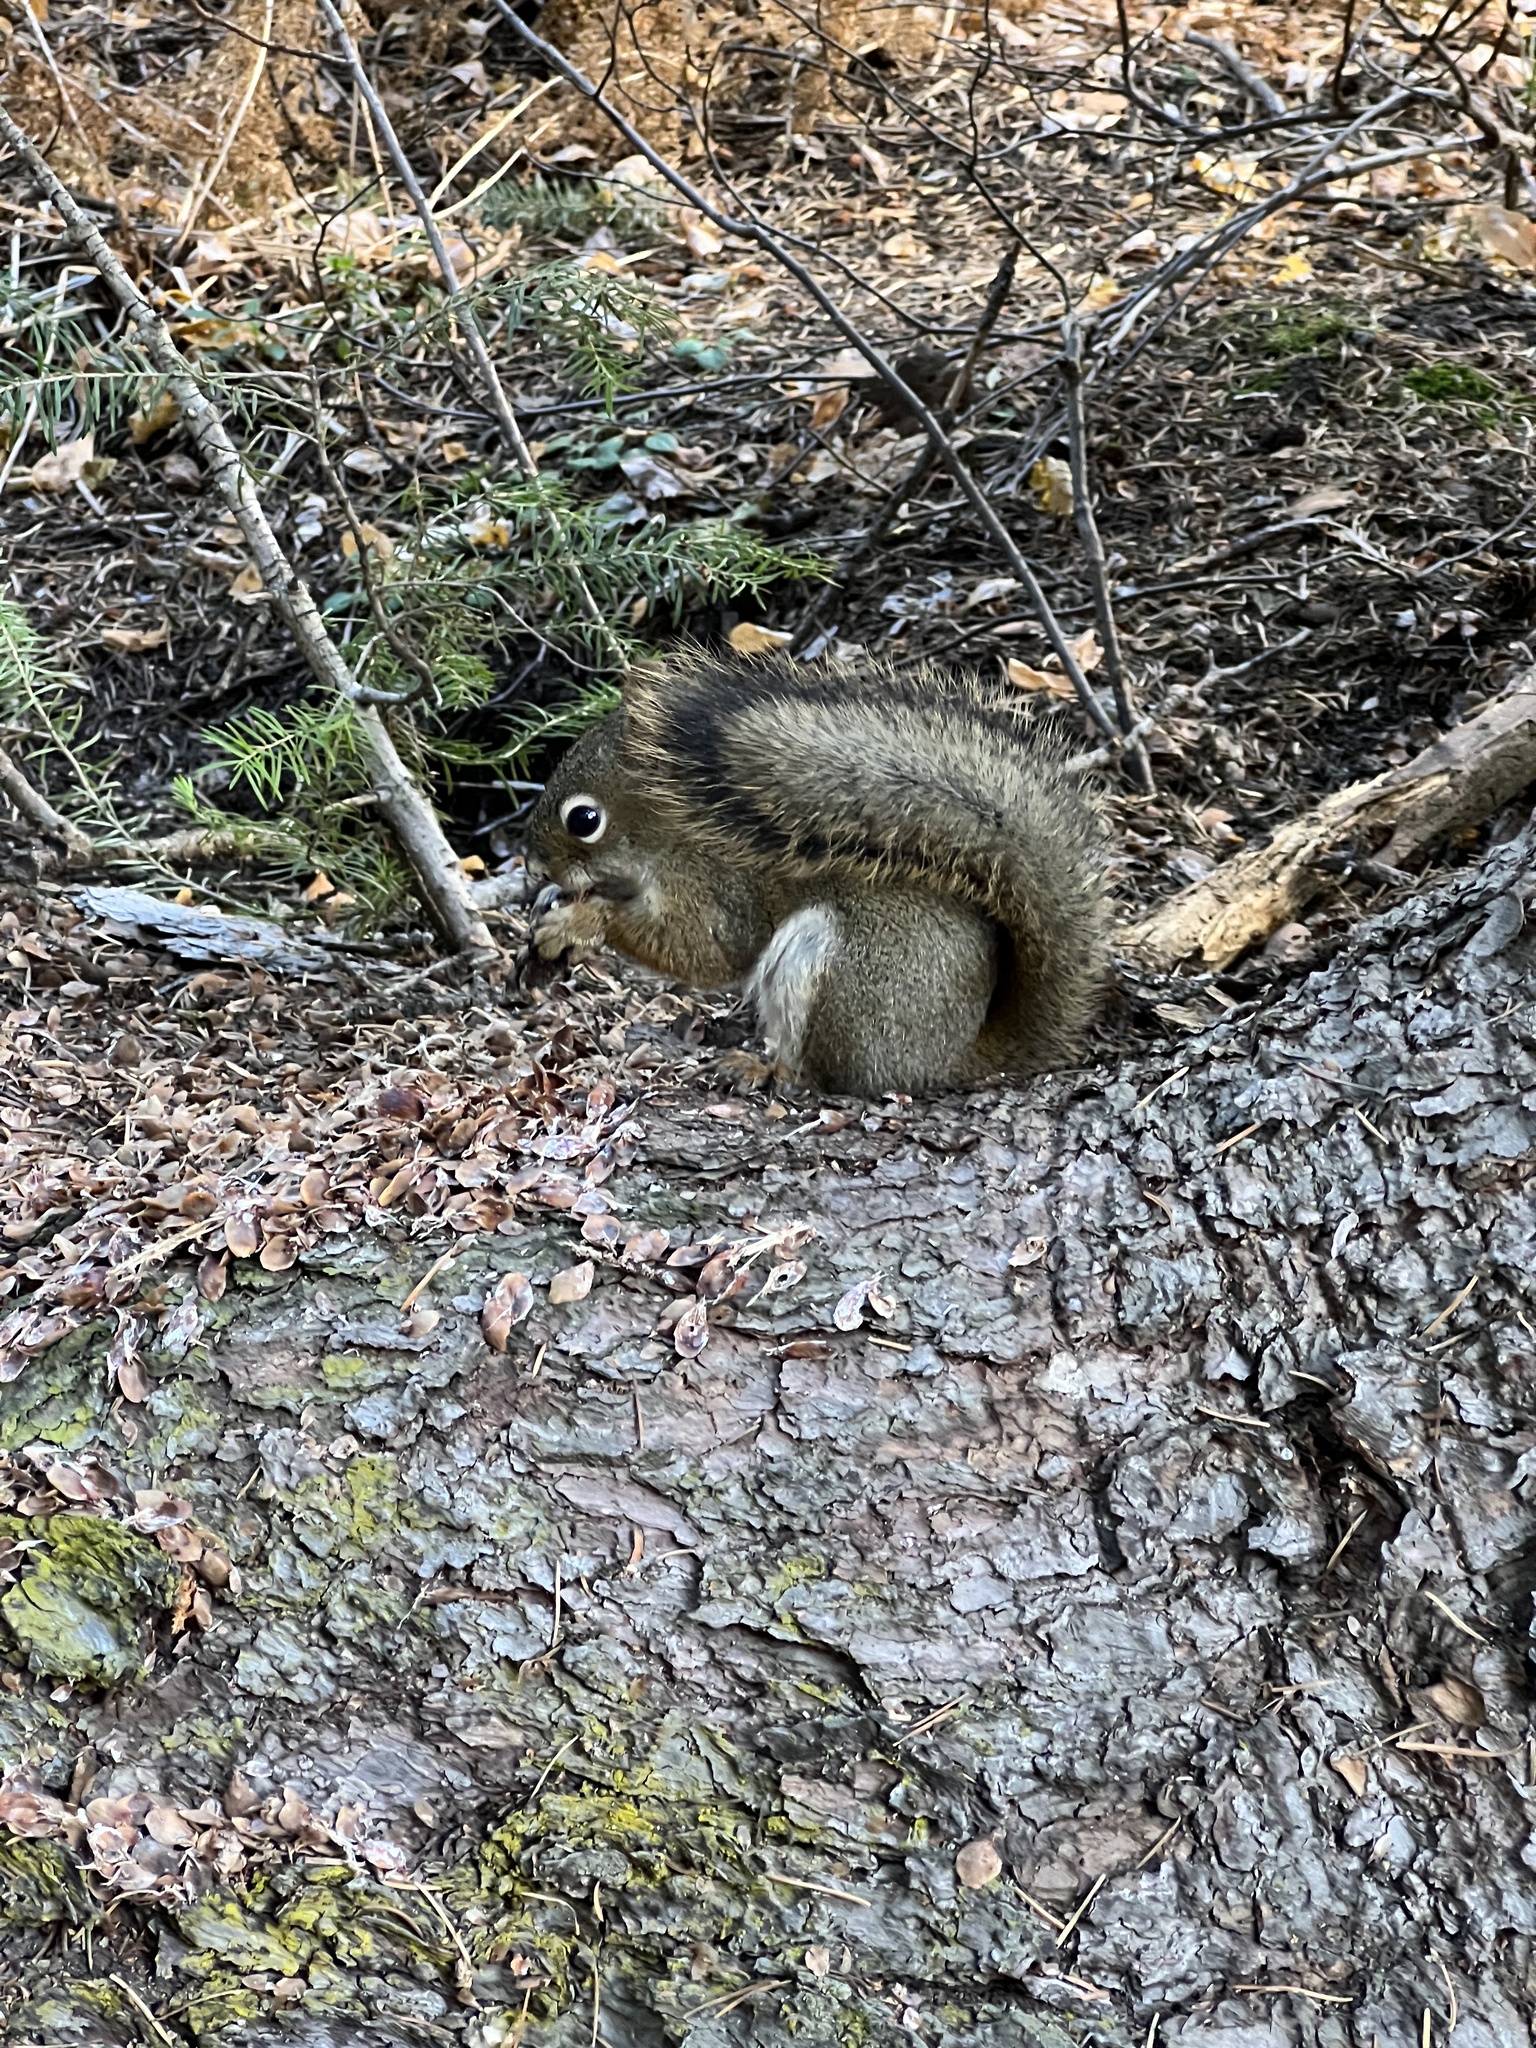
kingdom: Animalia
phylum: Chordata
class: Mammalia
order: Rodentia
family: Sciuridae
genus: Tamiasciurus
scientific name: Tamiasciurus hudsonicus
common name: Red squirrel
